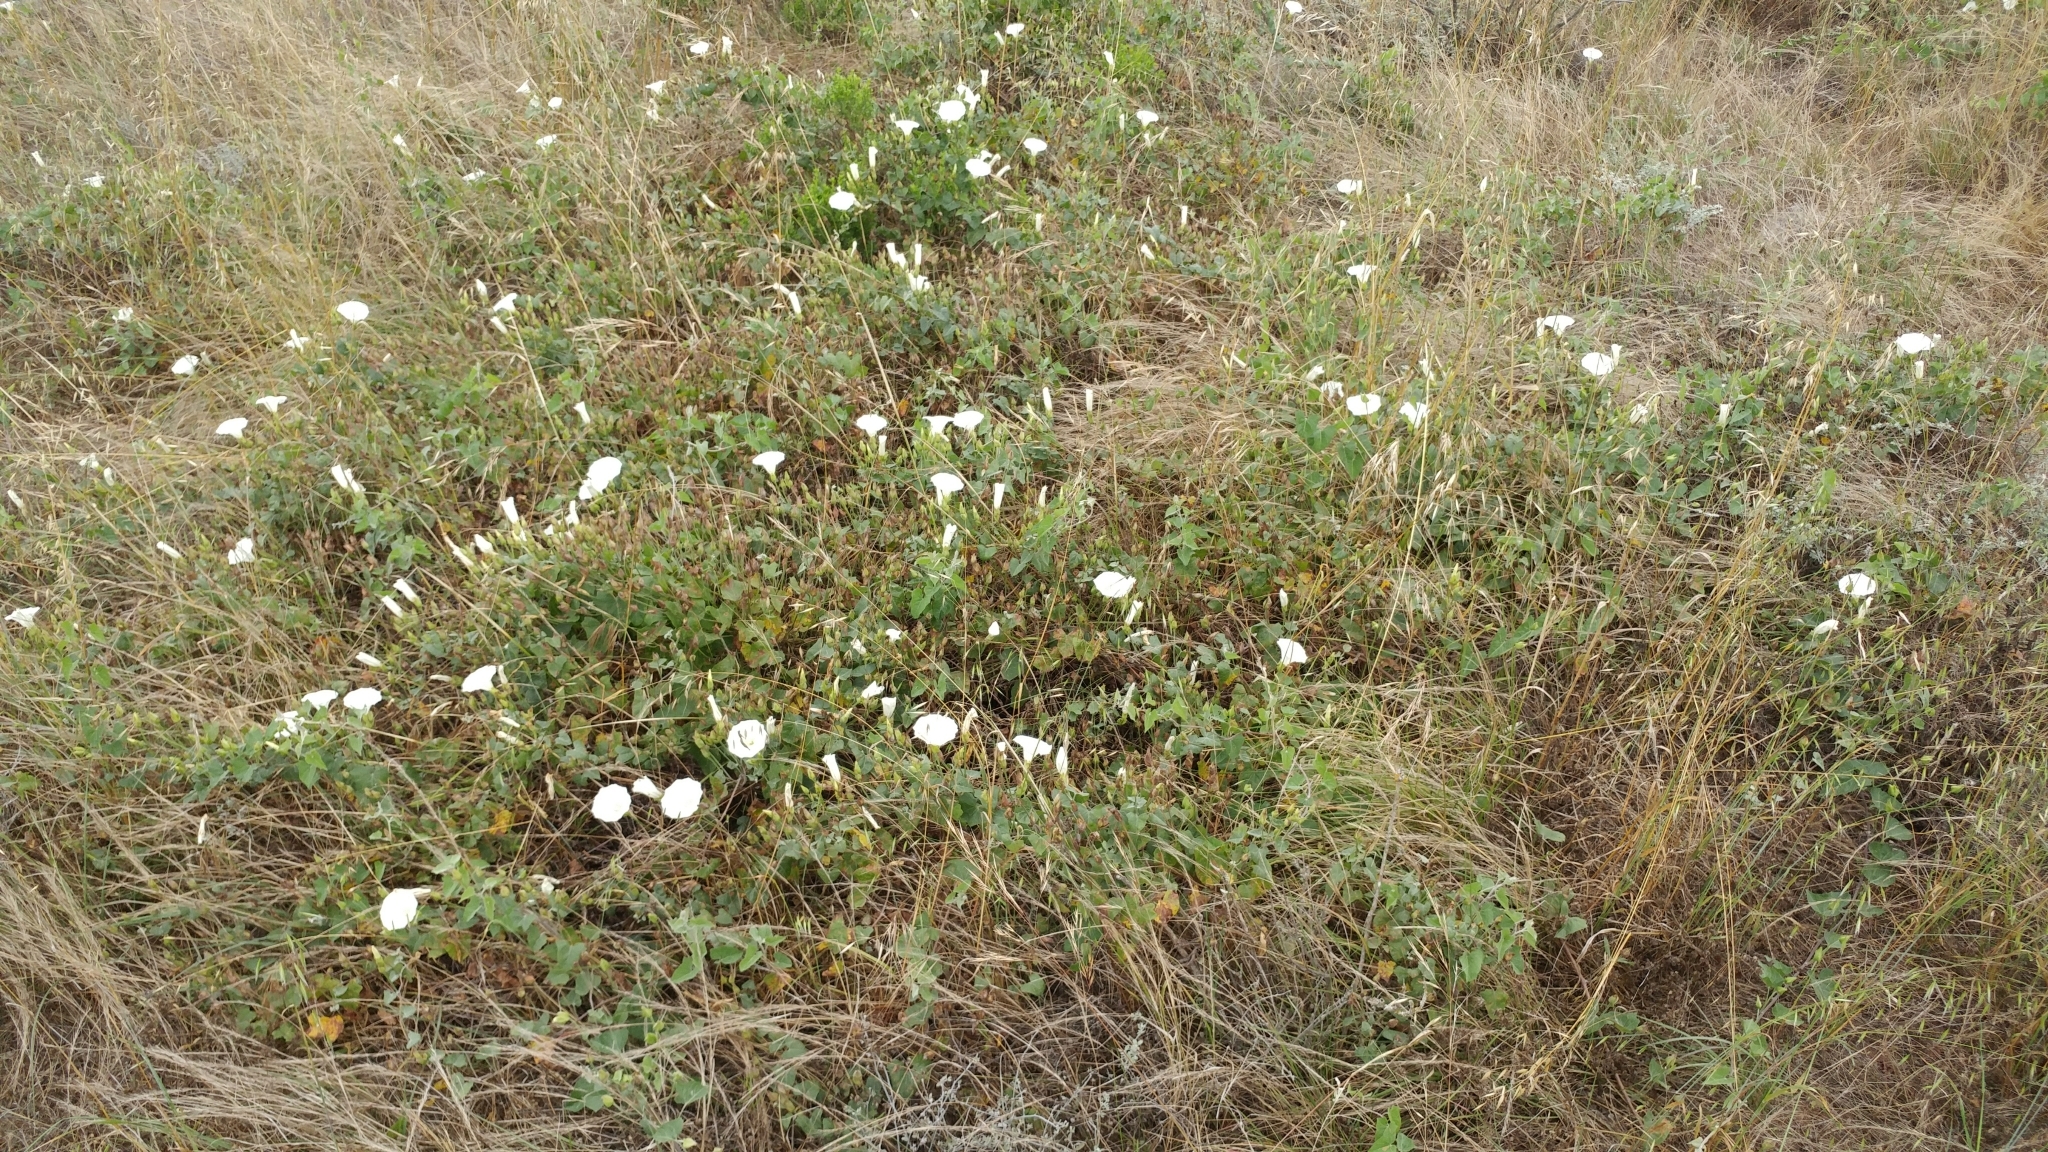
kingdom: Plantae
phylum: Tracheophyta
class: Magnoliopsida
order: Solanales
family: Convolvulaceae
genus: Calystegia
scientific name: Calystegia macrostegia
